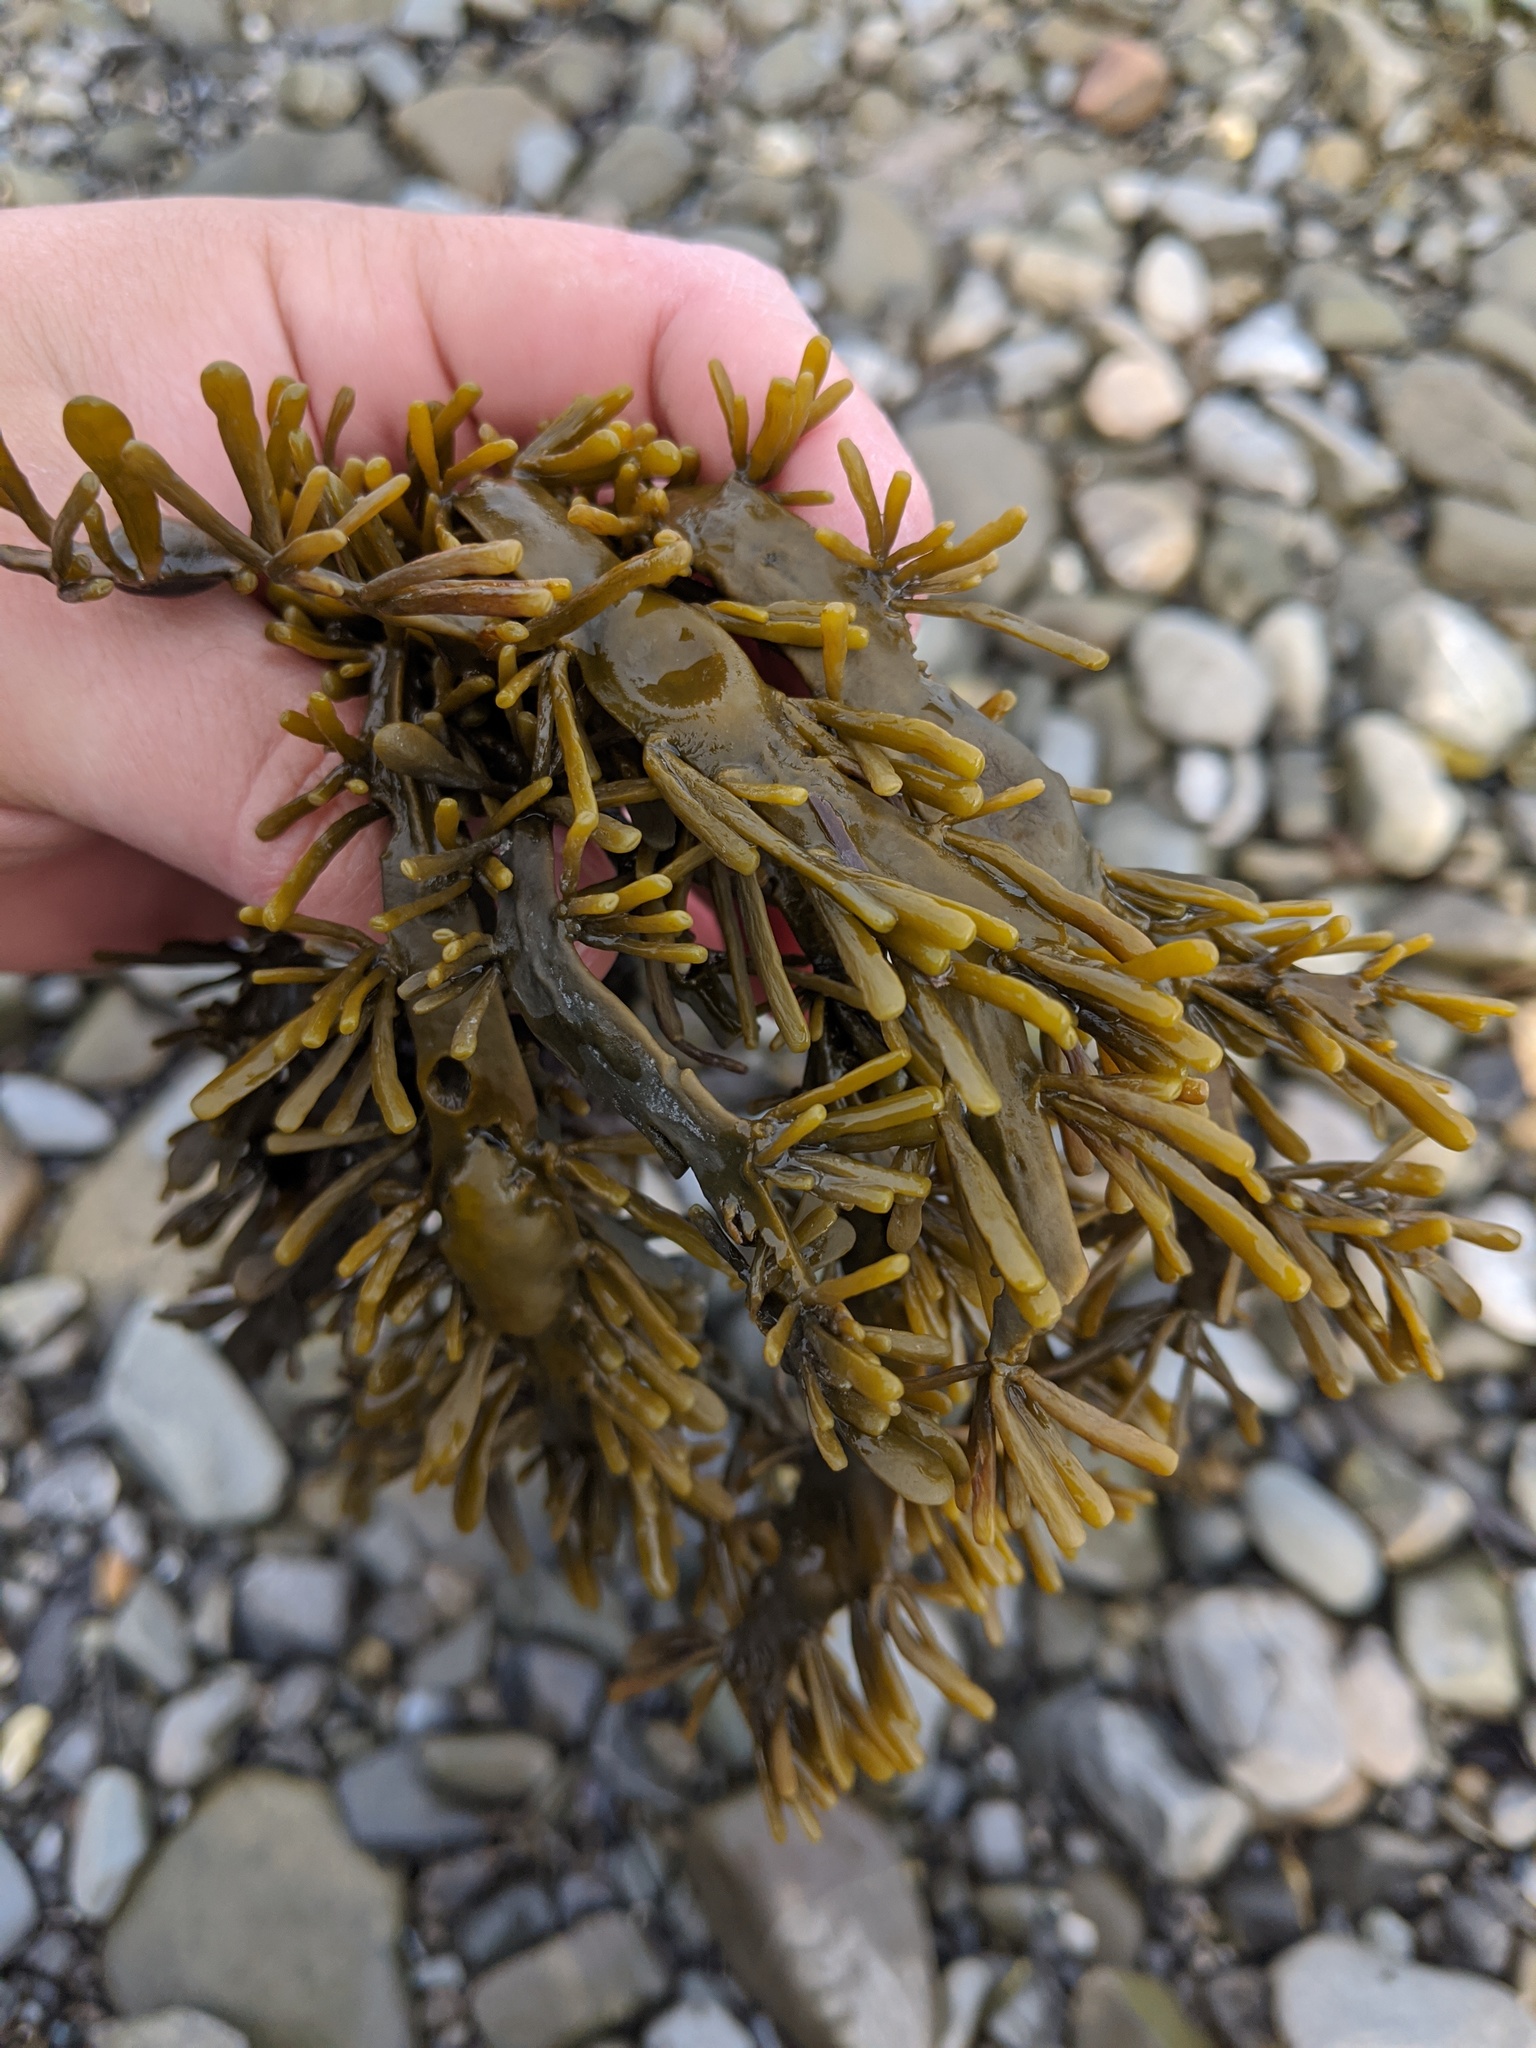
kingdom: Chromista
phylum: Ochrophyta
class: Phaeophyceae
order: Fucales
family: Fucaceae
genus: Ascophyllum
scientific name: Ascophyllum nodosum
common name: Knotted wrack
